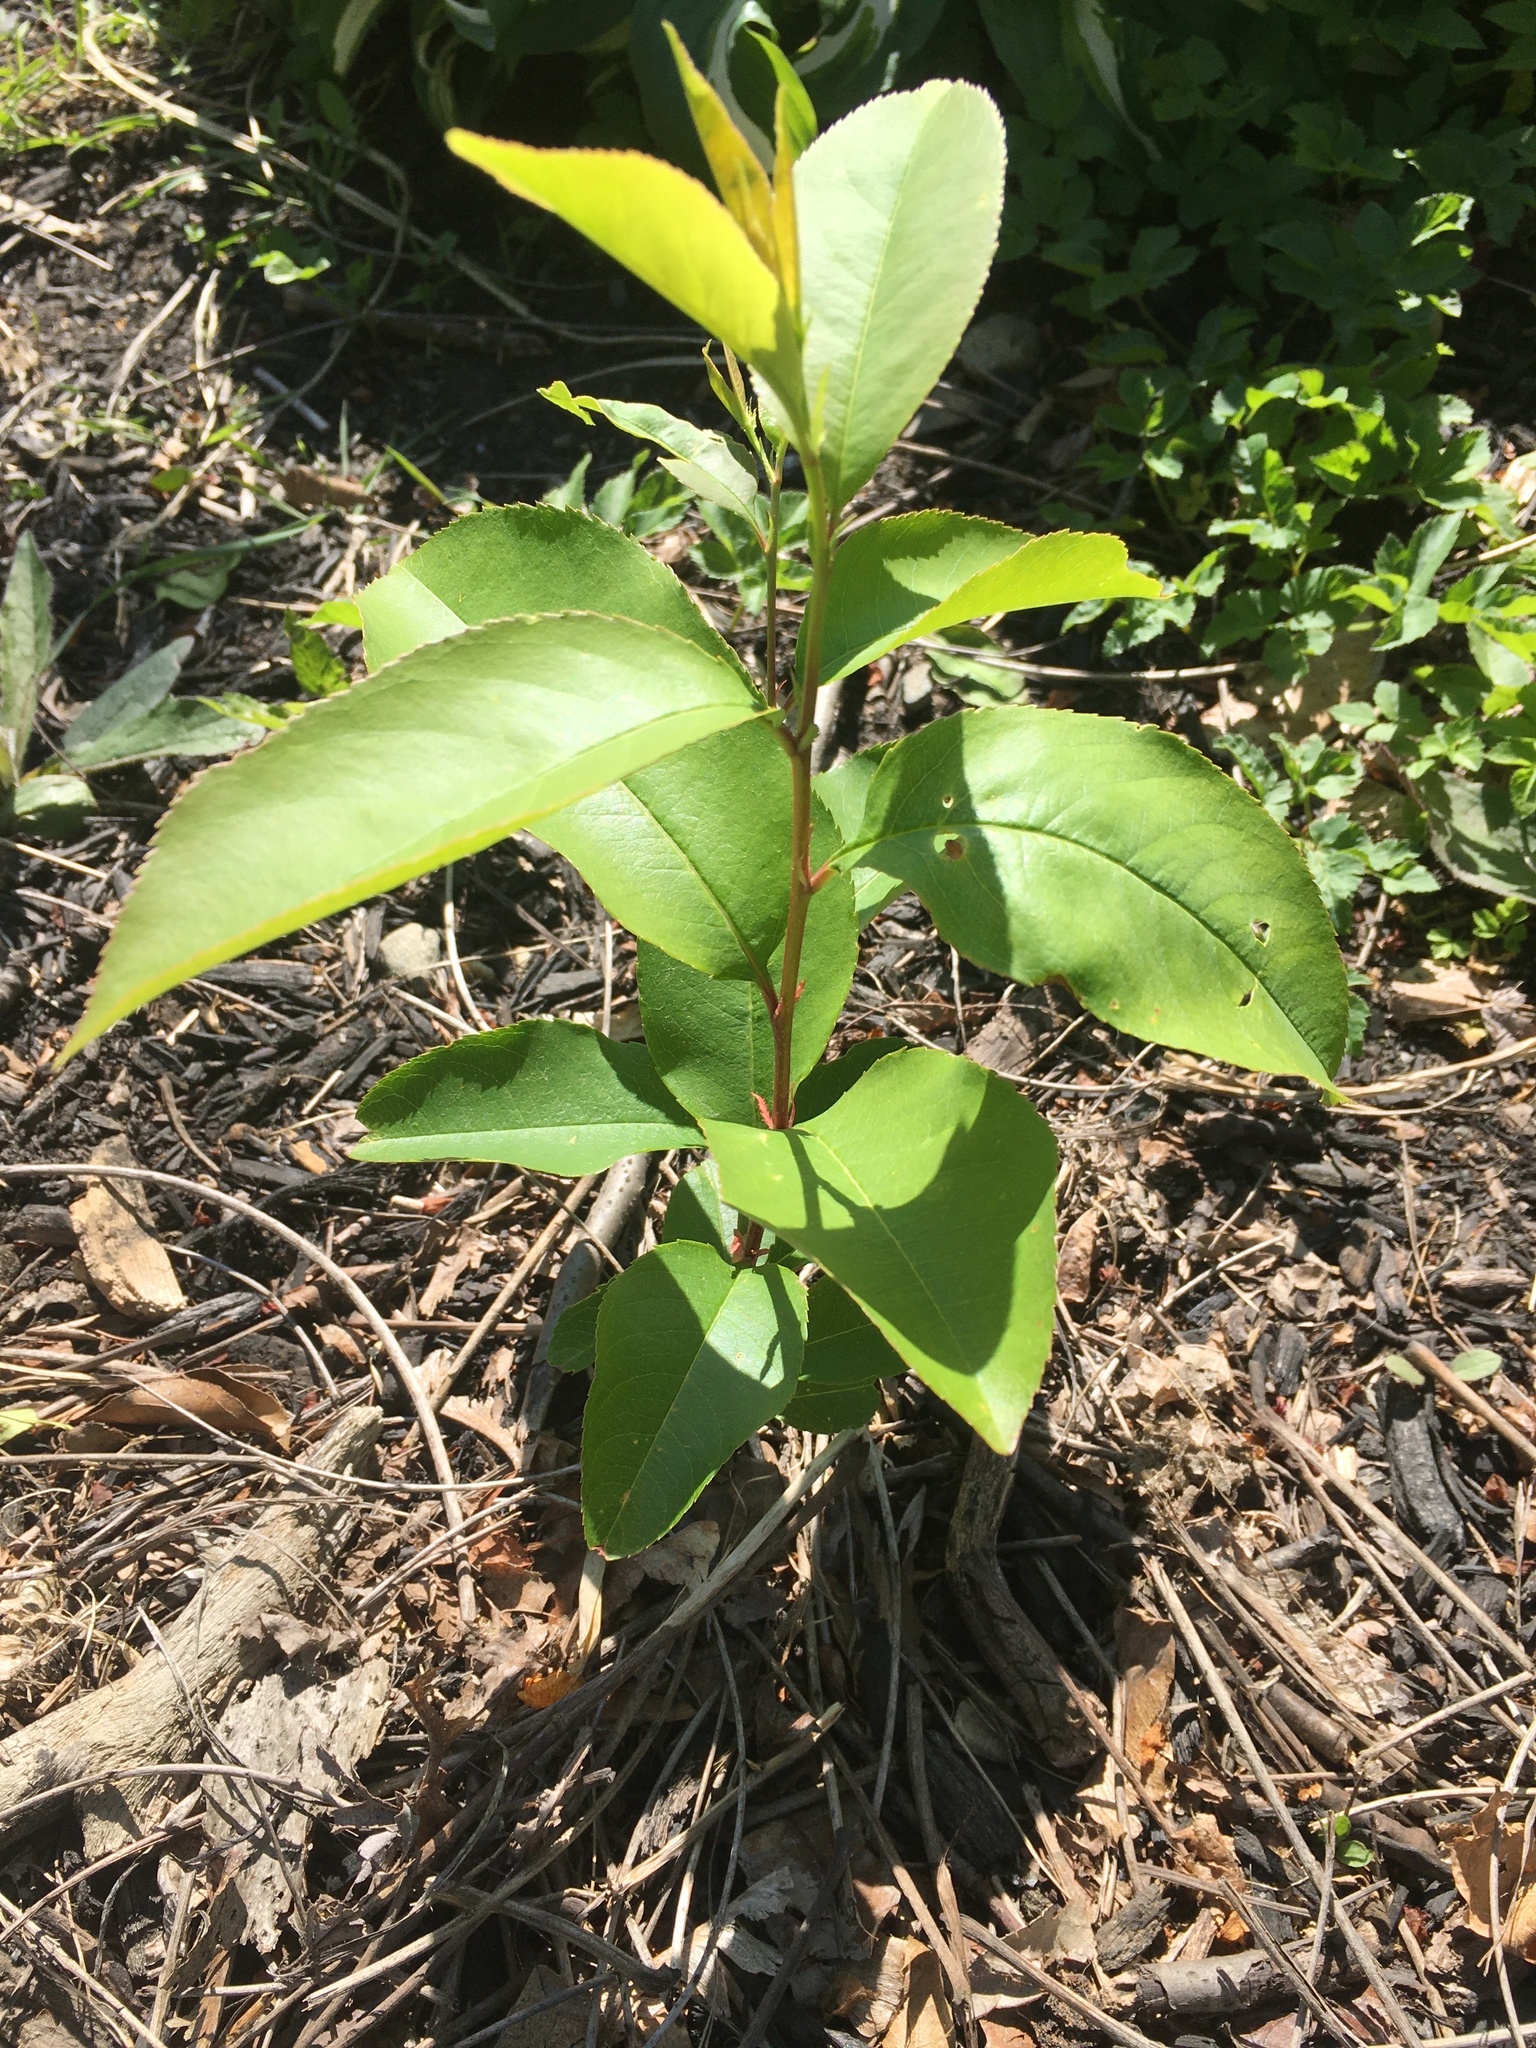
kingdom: Plantae
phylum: Tracheophyta
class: Magnoliopsida
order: Rosales
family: Rosaceae
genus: Prunus
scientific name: Prunus serotina
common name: Black cherry
